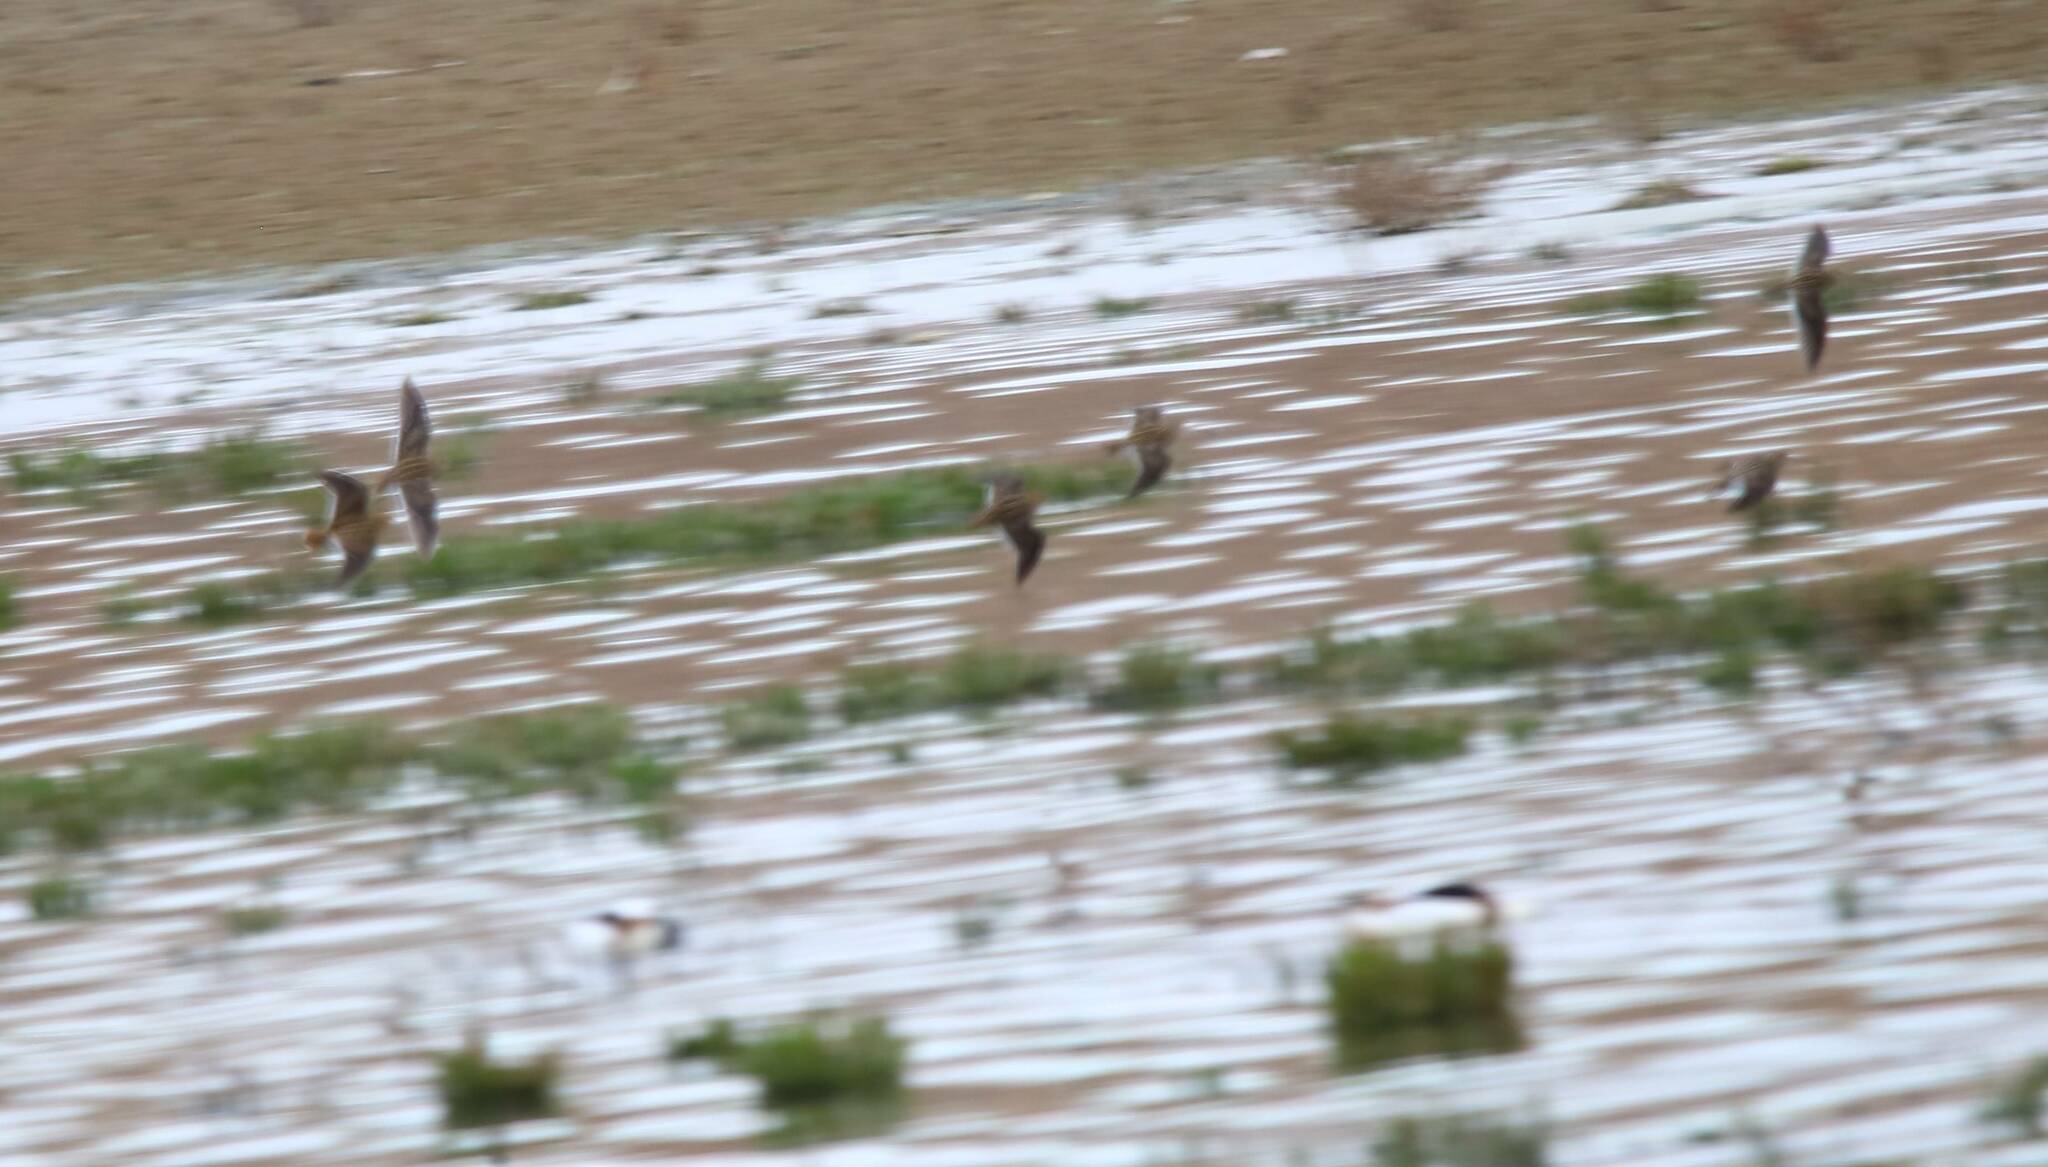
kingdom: Animalia
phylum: Chordata
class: Aves
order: Charadriiformes
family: Scolopacidae
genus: Gallinago
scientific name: Gallinago gallinago
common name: Common snipe
